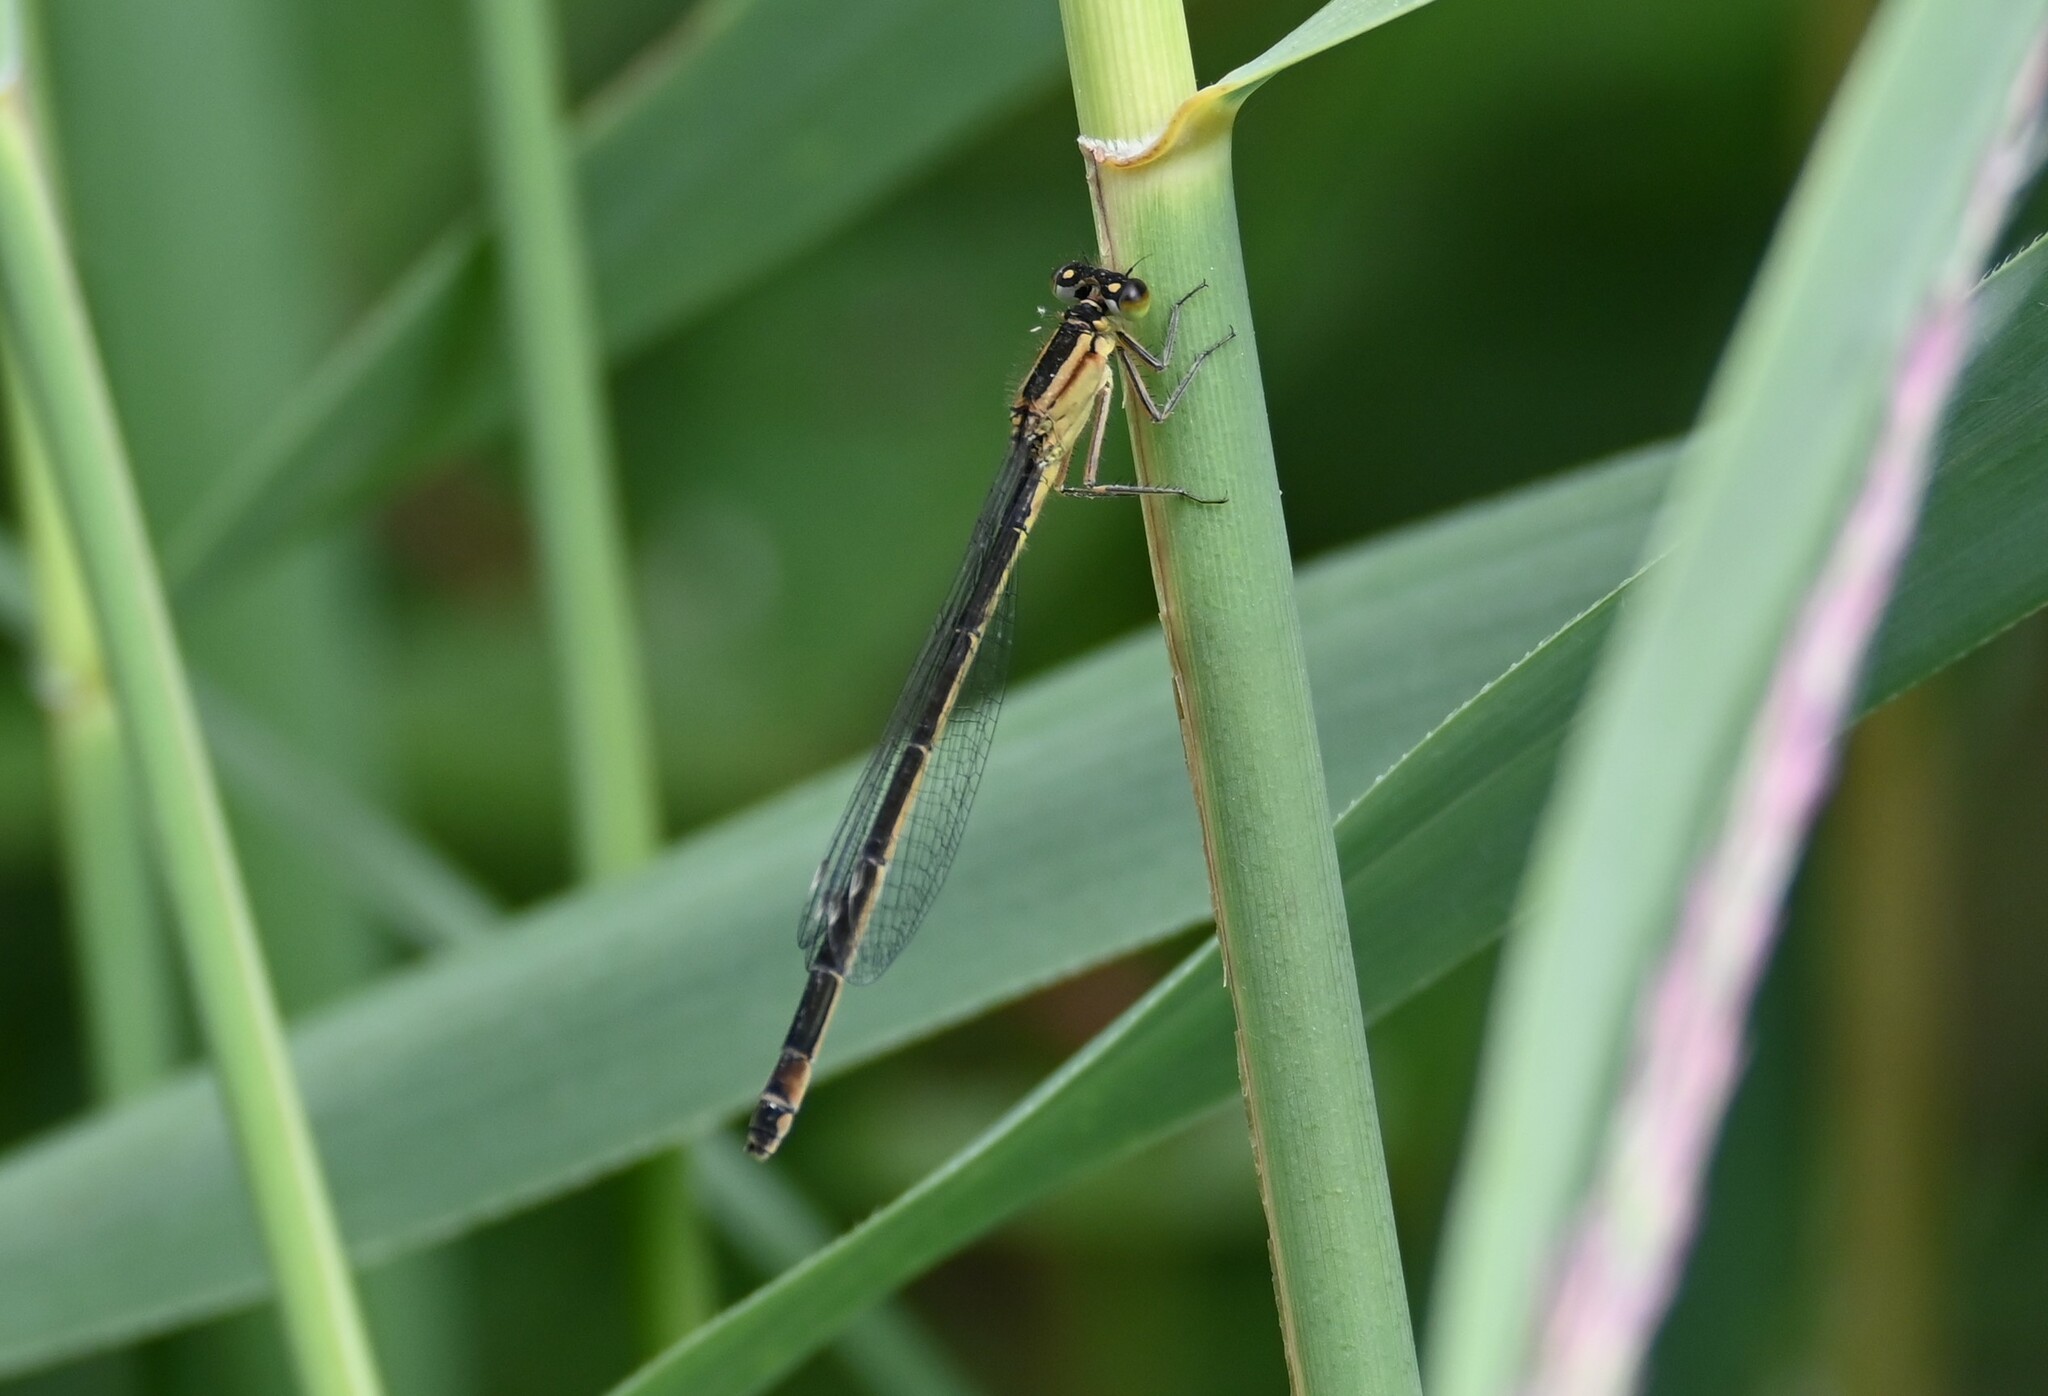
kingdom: Animalia
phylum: Arthropoda
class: Insecta
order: Odonata
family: Coenagrionidae
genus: Ischnura
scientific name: Ischnura elegans
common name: Blue-tailed damselfly
